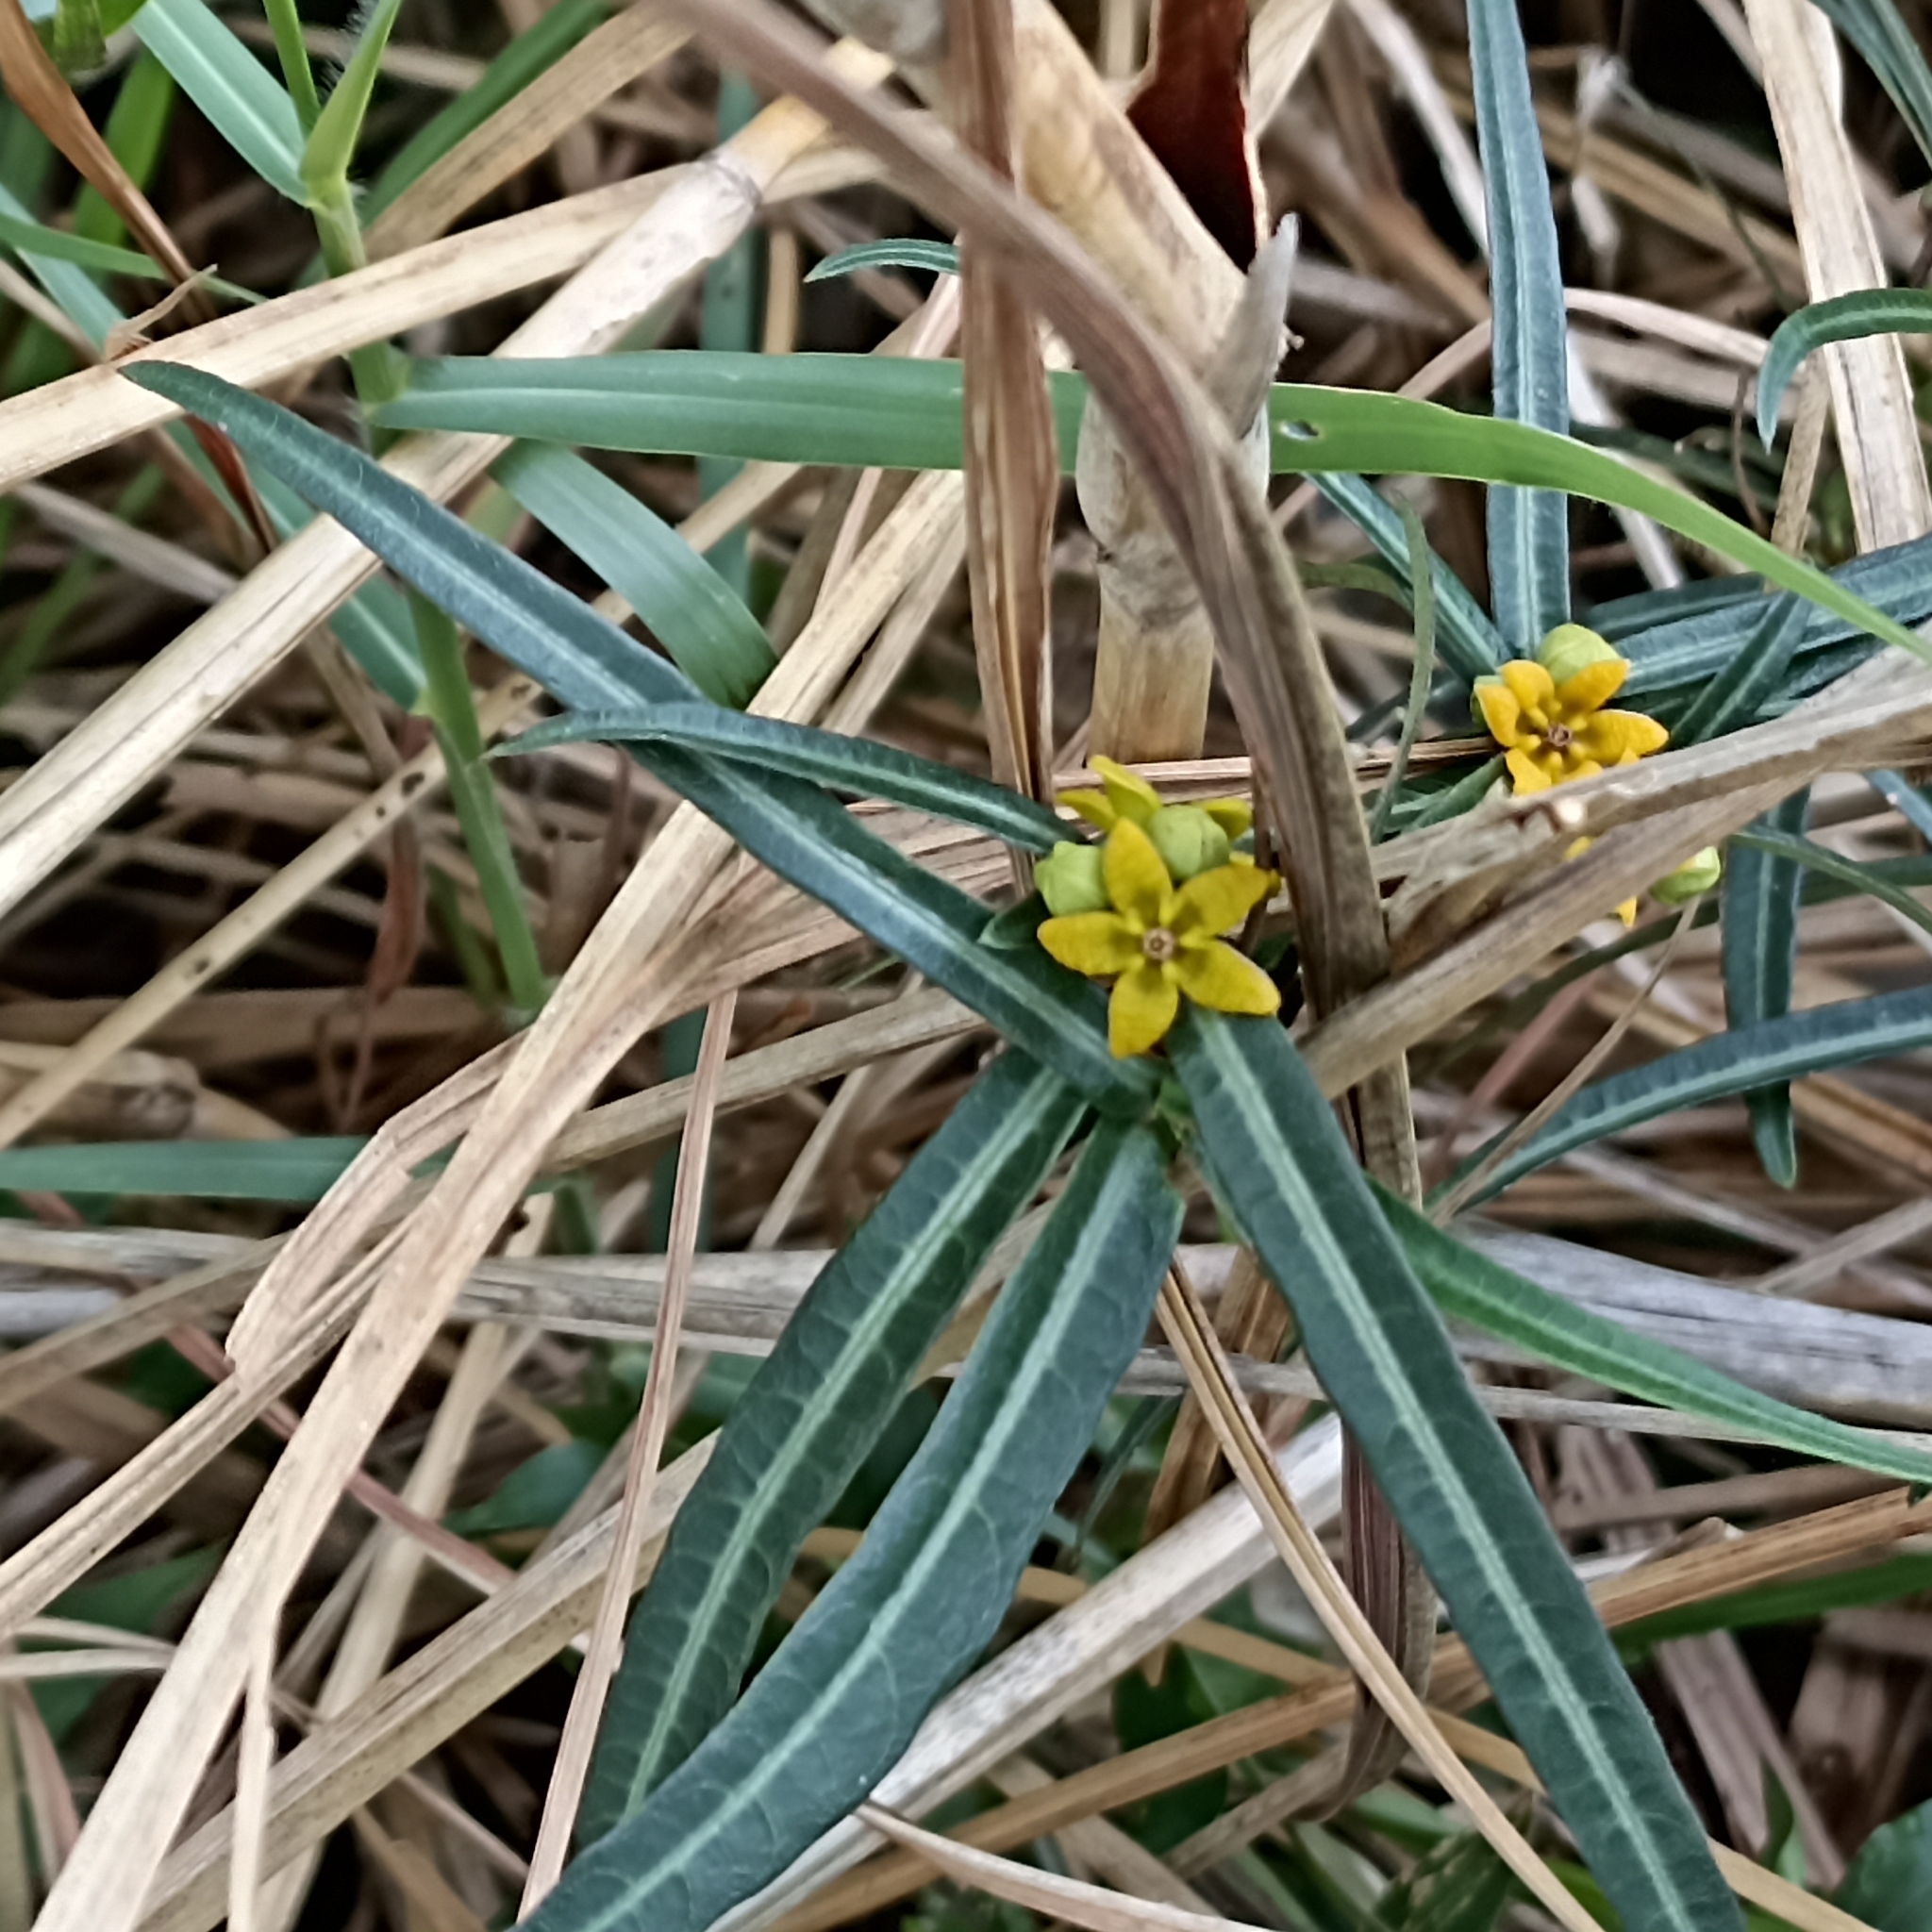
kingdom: Plantae
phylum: Tracheophyta
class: Magnoliopsida
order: Gentianales
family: Apocynaceae
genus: Hemidesmus
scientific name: Hemidesmus indicus
